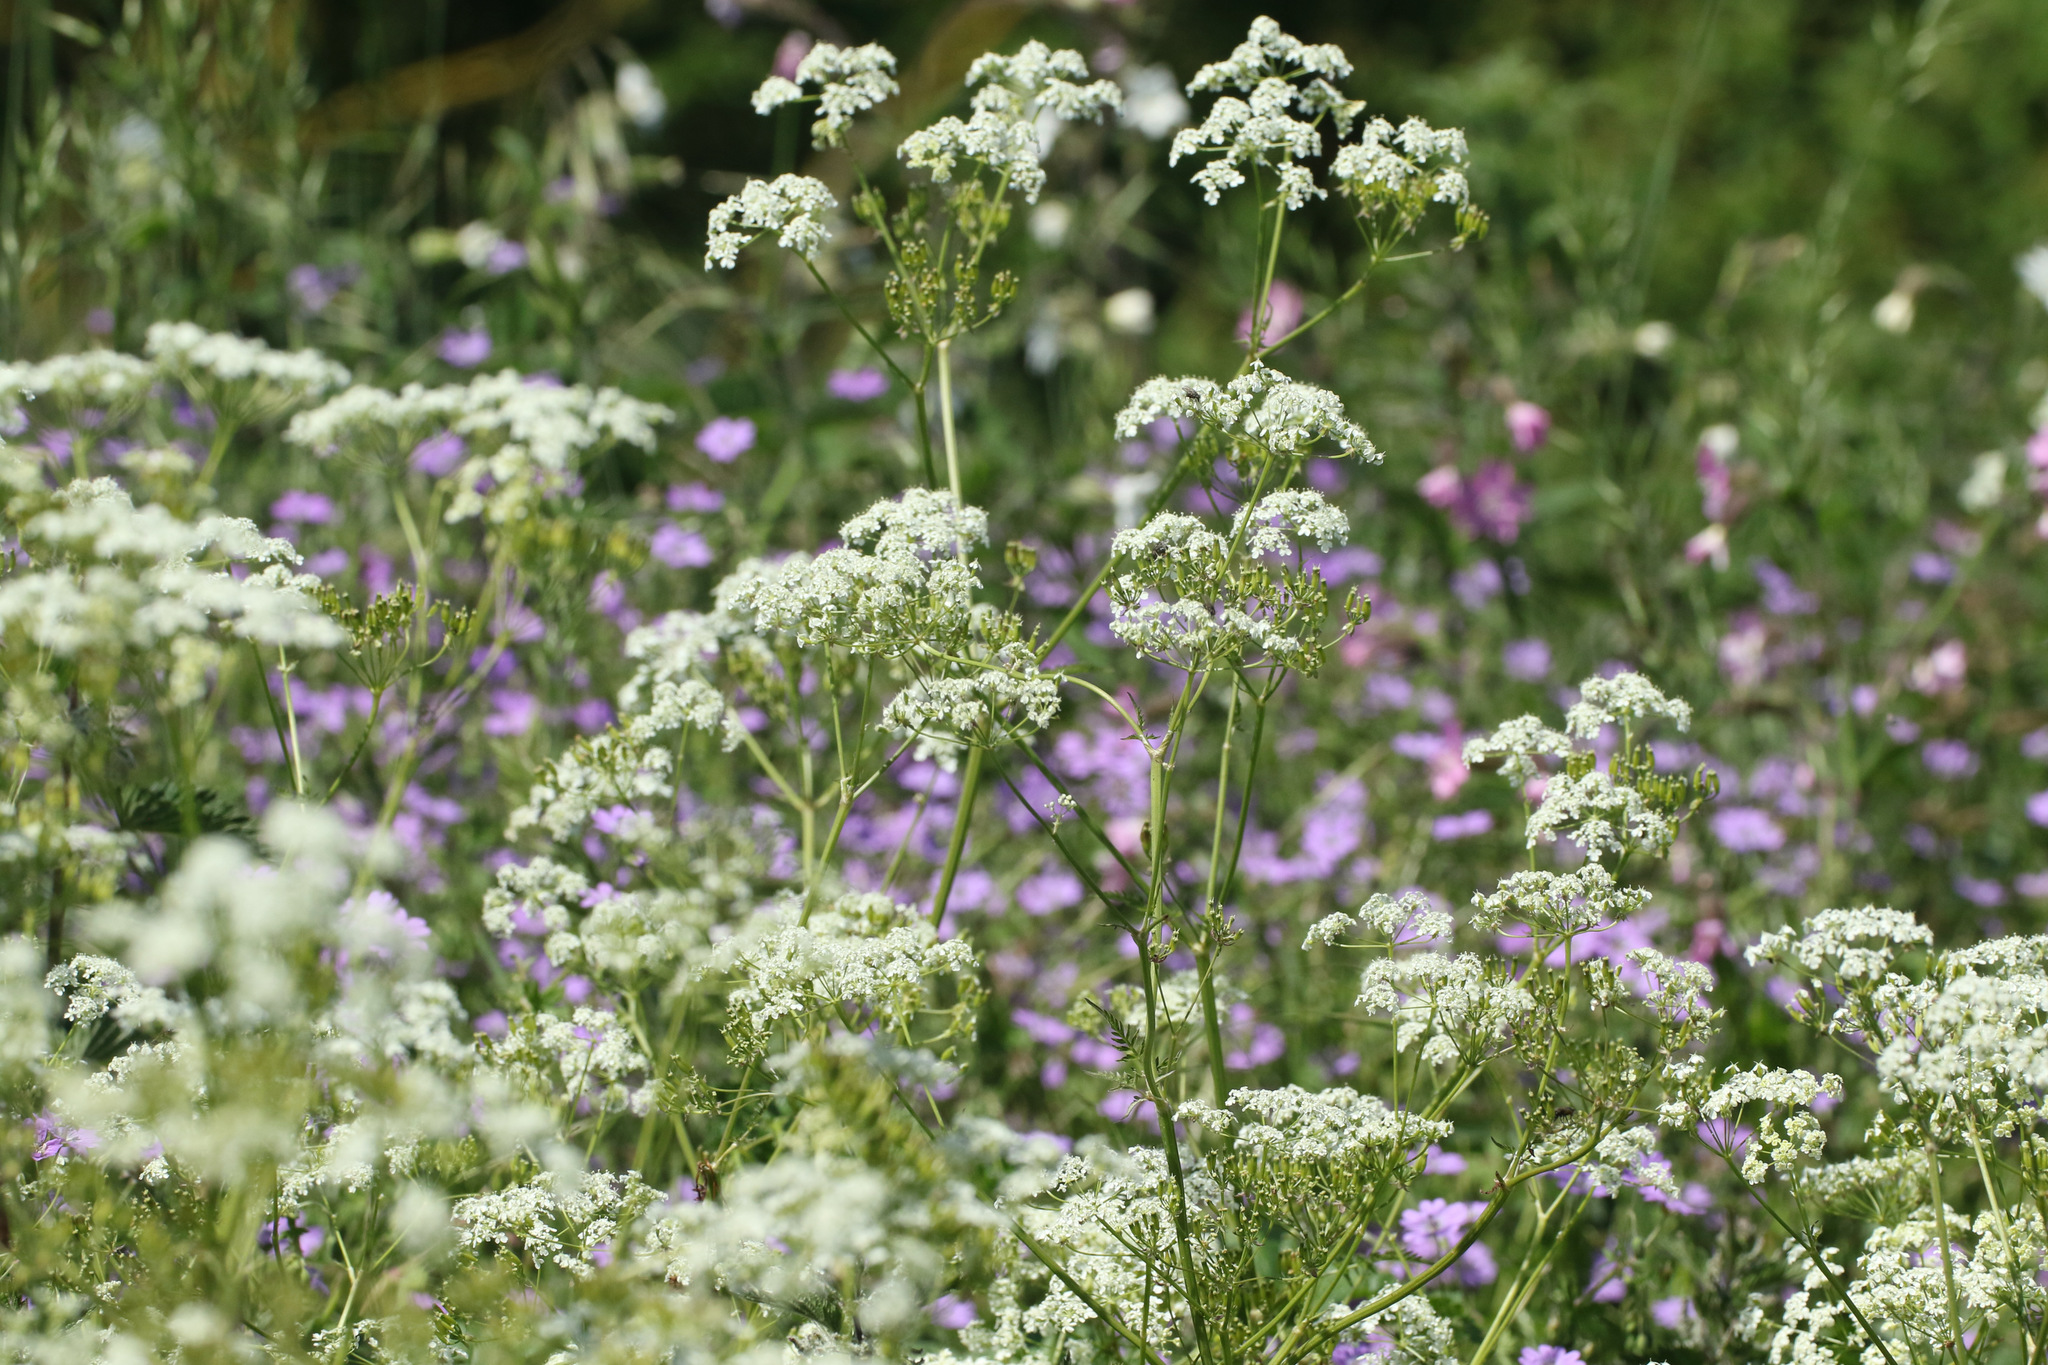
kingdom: Plantae
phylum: Tracheophyta
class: Magnoliopsida
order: Apiales
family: Apiaceae
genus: Anthriscus
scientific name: Anthriscus sylvestris
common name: Cow parsley
